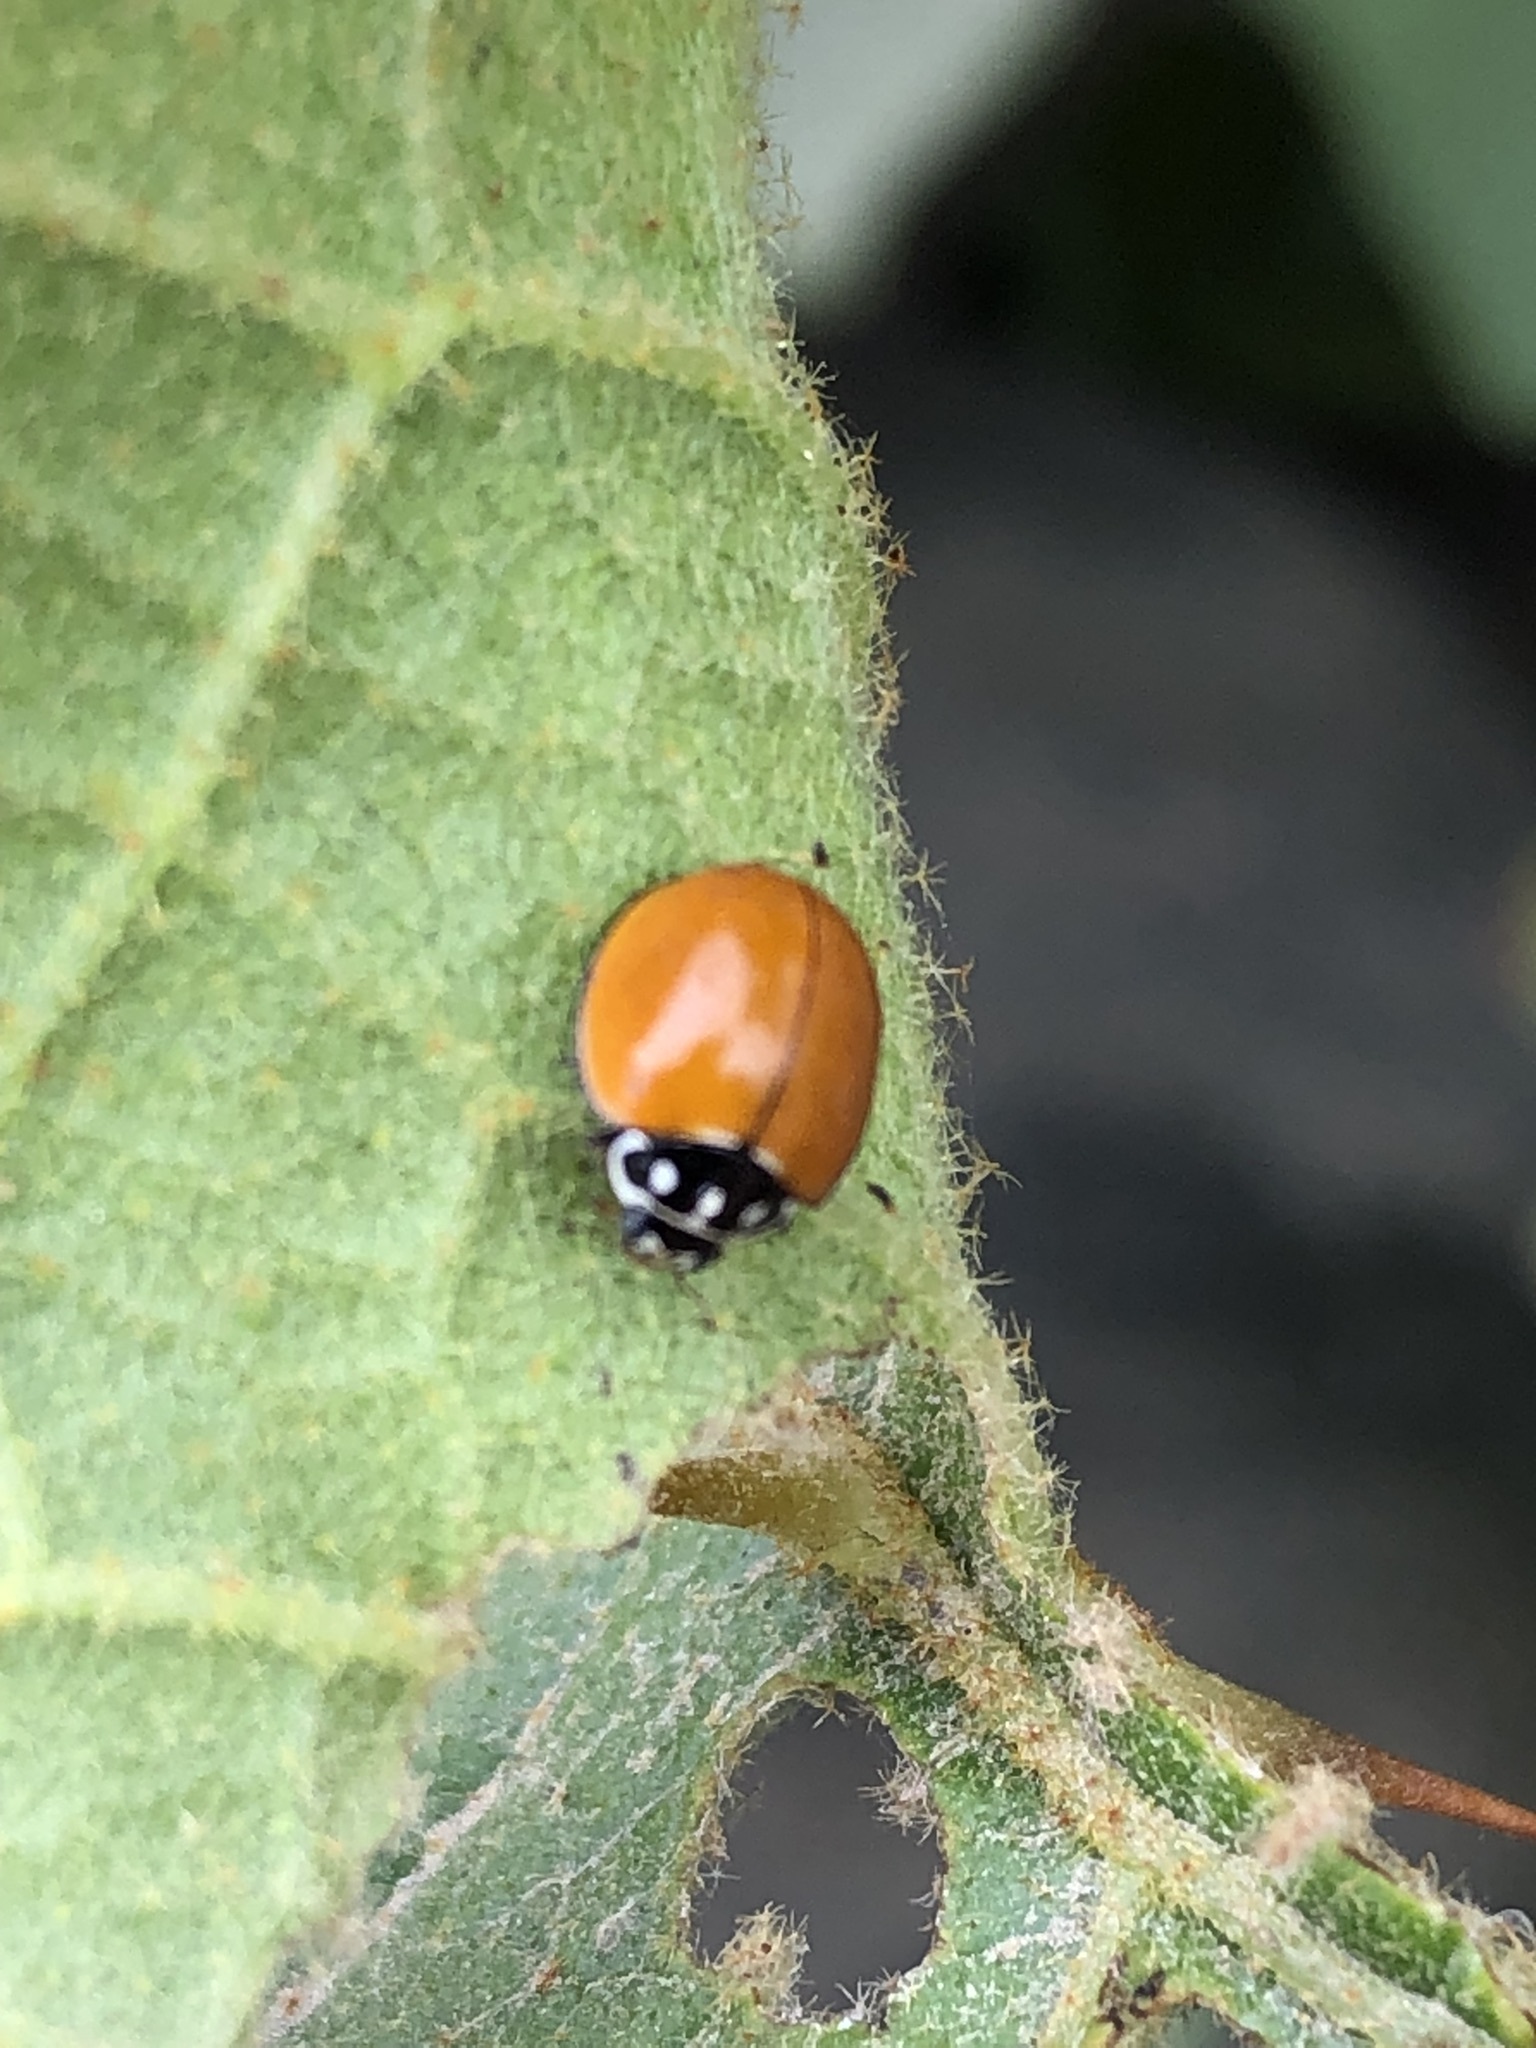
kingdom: Animalia
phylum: Arthropoda
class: Insecta
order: Coleoptera
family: Coccinellidae
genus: Cycloneda
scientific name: Cycloneda sanguinea
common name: Ladybird beetle
